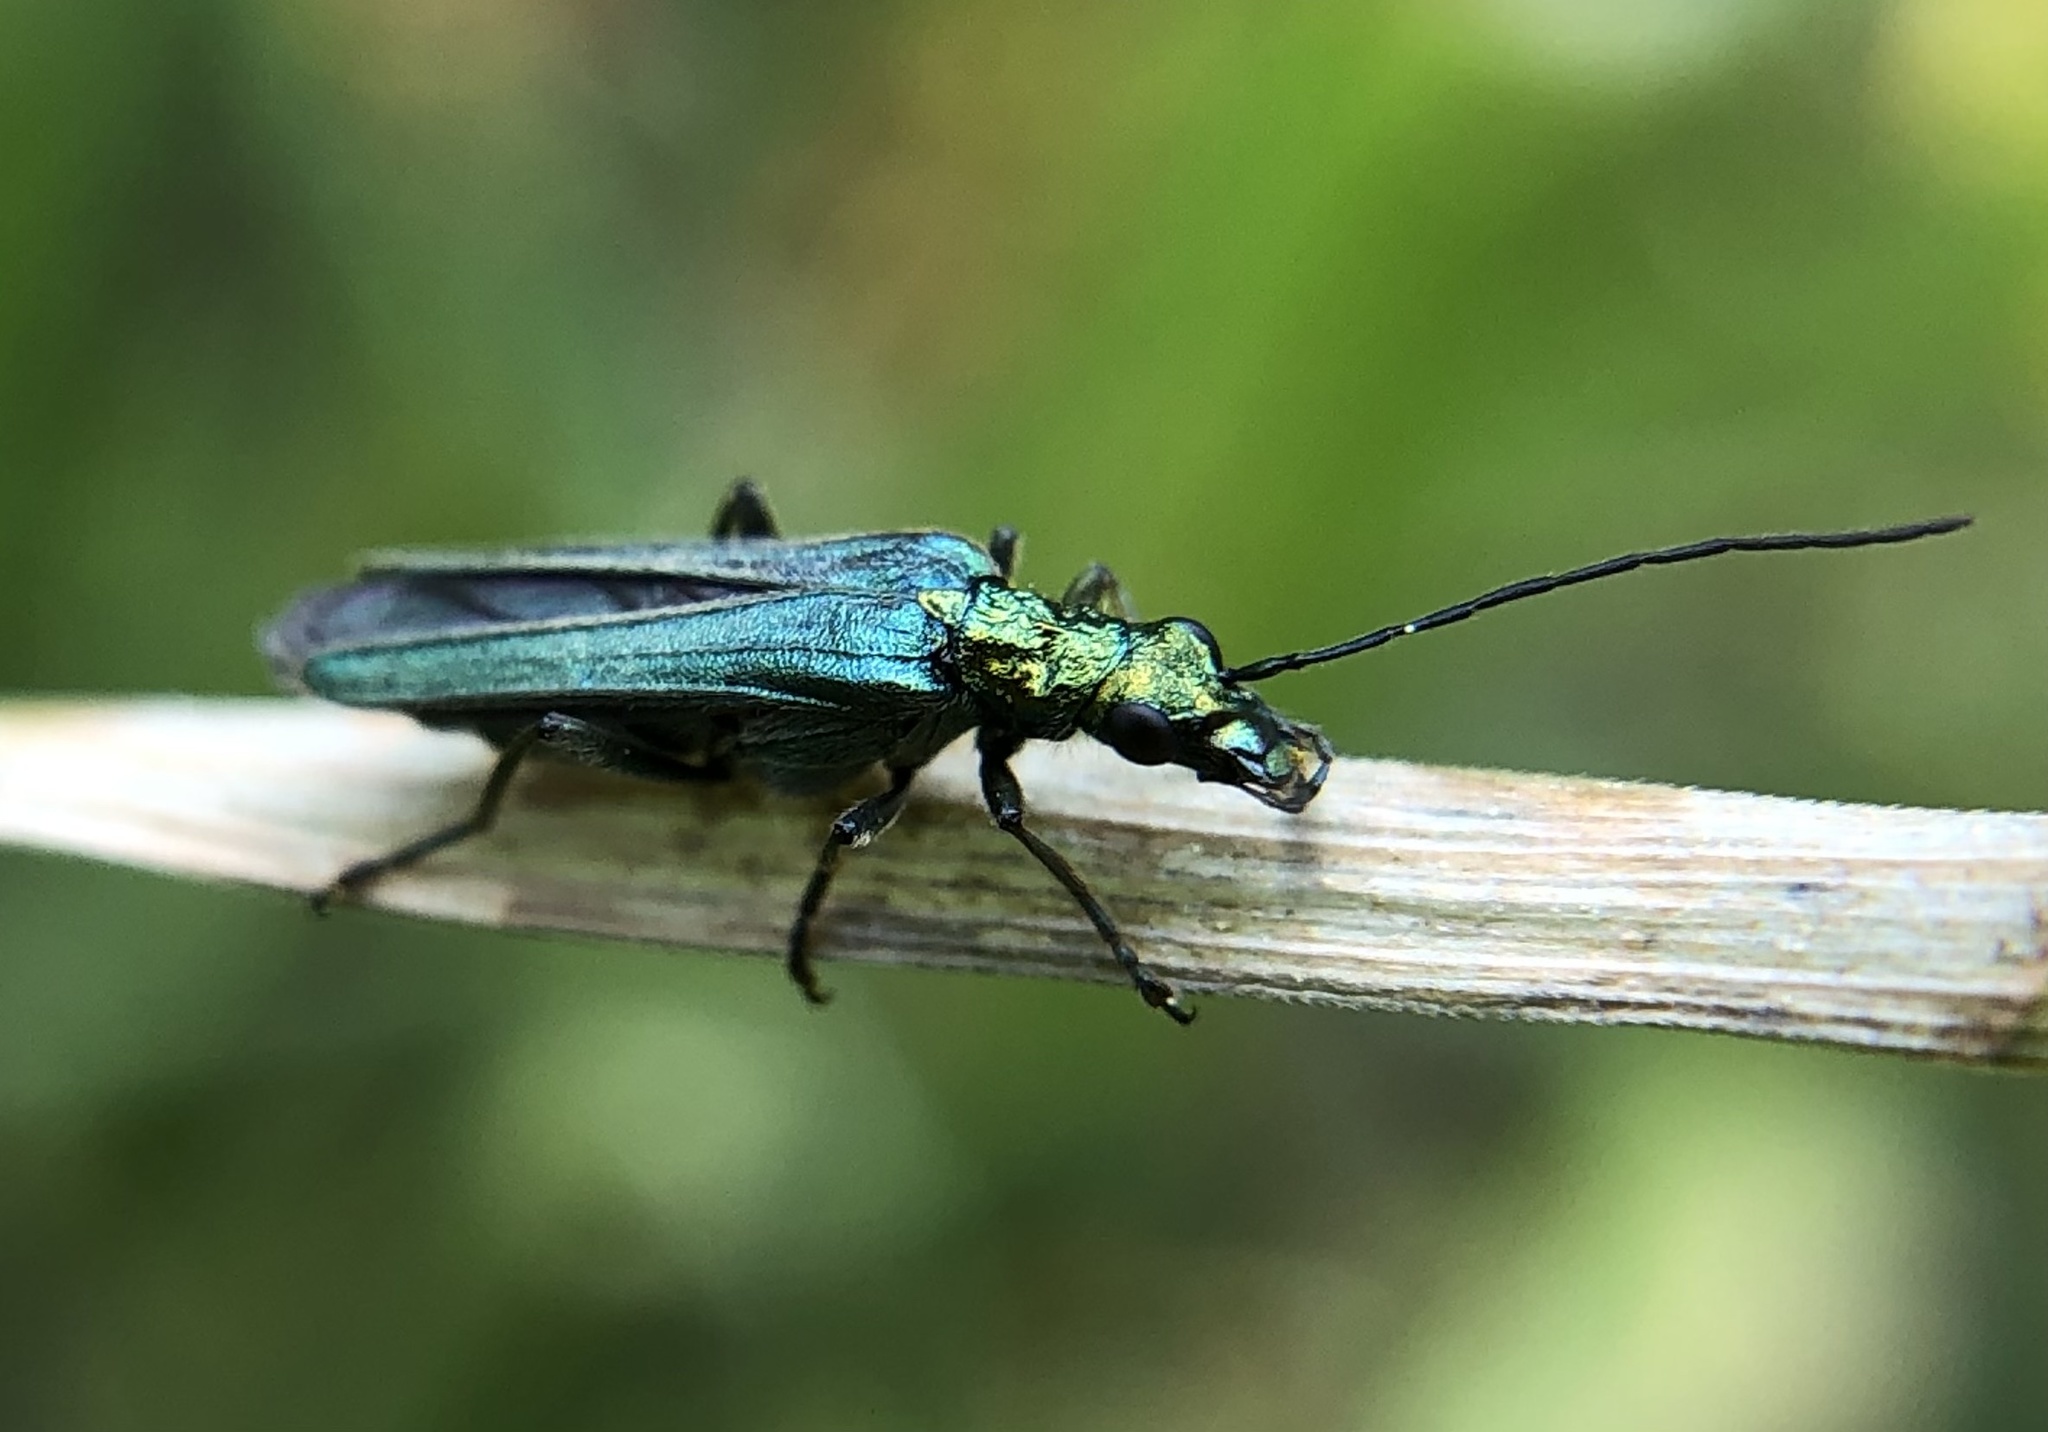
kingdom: Animalia
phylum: Arthropoda
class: Insecta
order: Coleoptera
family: Oedemeridae
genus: Oedemera
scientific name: Oedemera nobilis
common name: Swollen-thighed beetle
